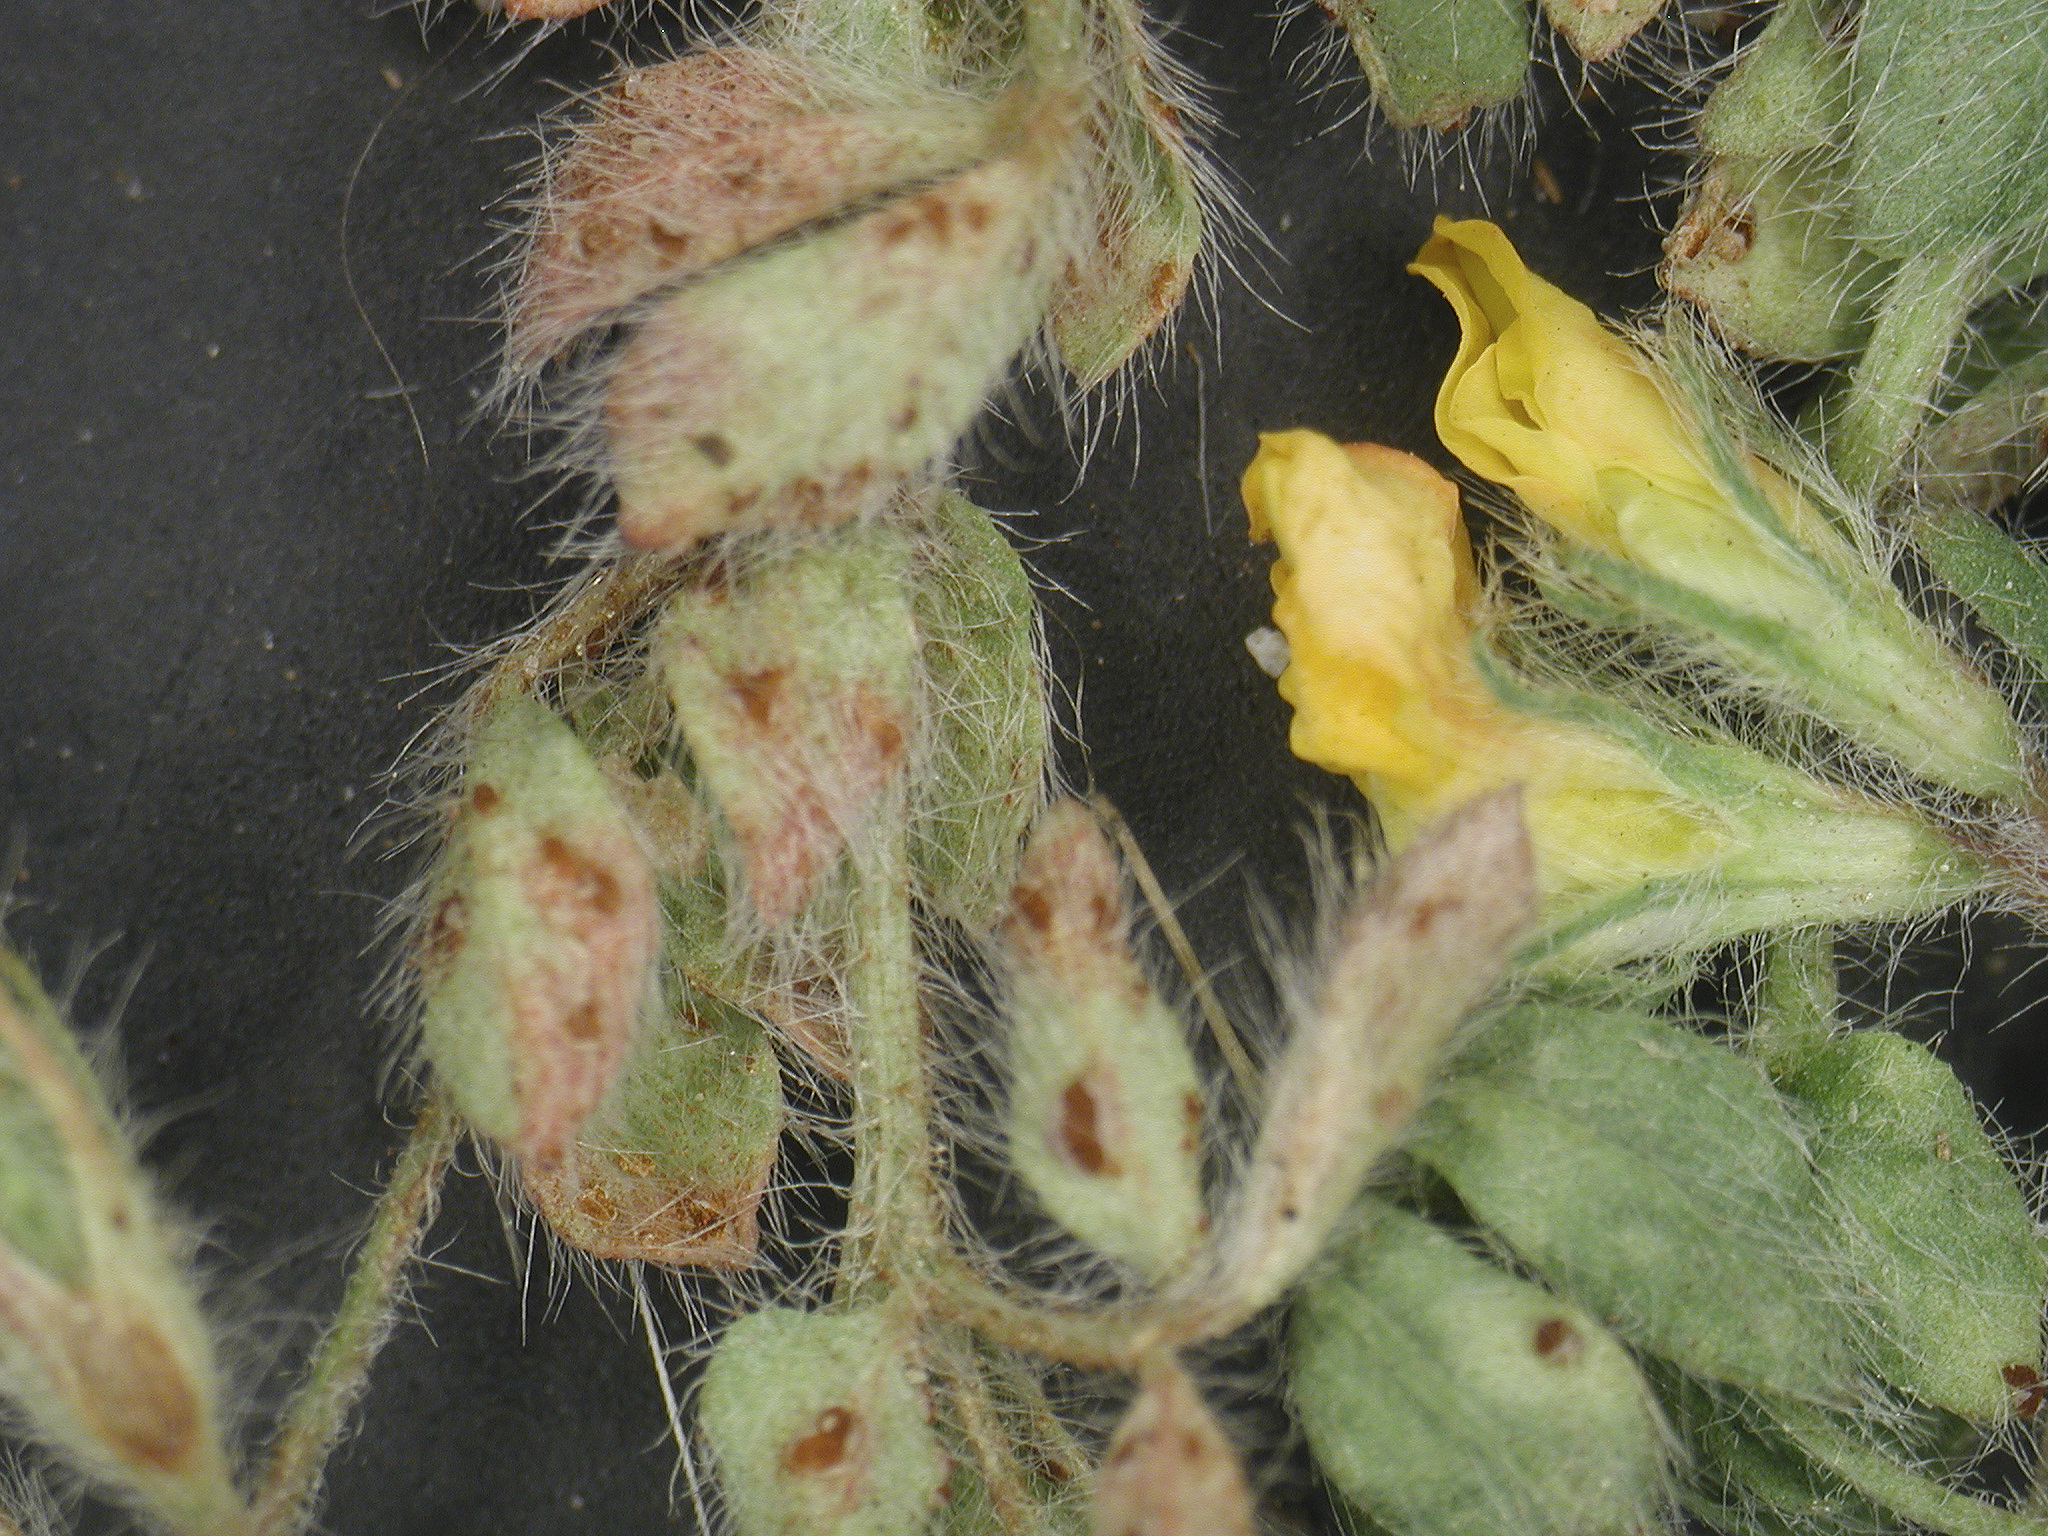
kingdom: Fungi
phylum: Basidiomycota
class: Pucciniomycetes
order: Pucciniales
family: Pucciniaceae
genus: Uromyces
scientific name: Uromyces anthyllidis
